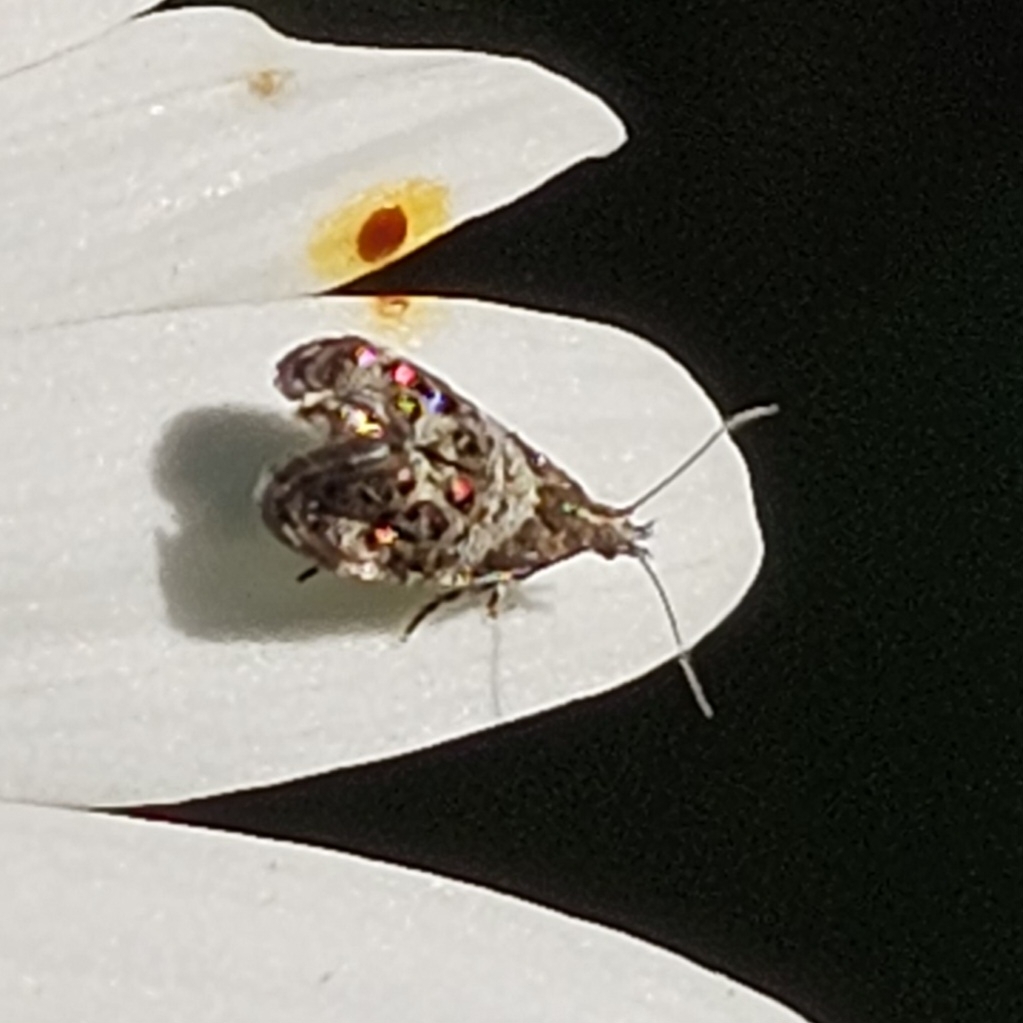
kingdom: Animalia
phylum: Arthropoda
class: Insecta
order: Lepidoptera
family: Choreutidae
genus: Tebenna
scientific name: Tebenna gnaphaliella
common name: Everlasting tebenna moth
